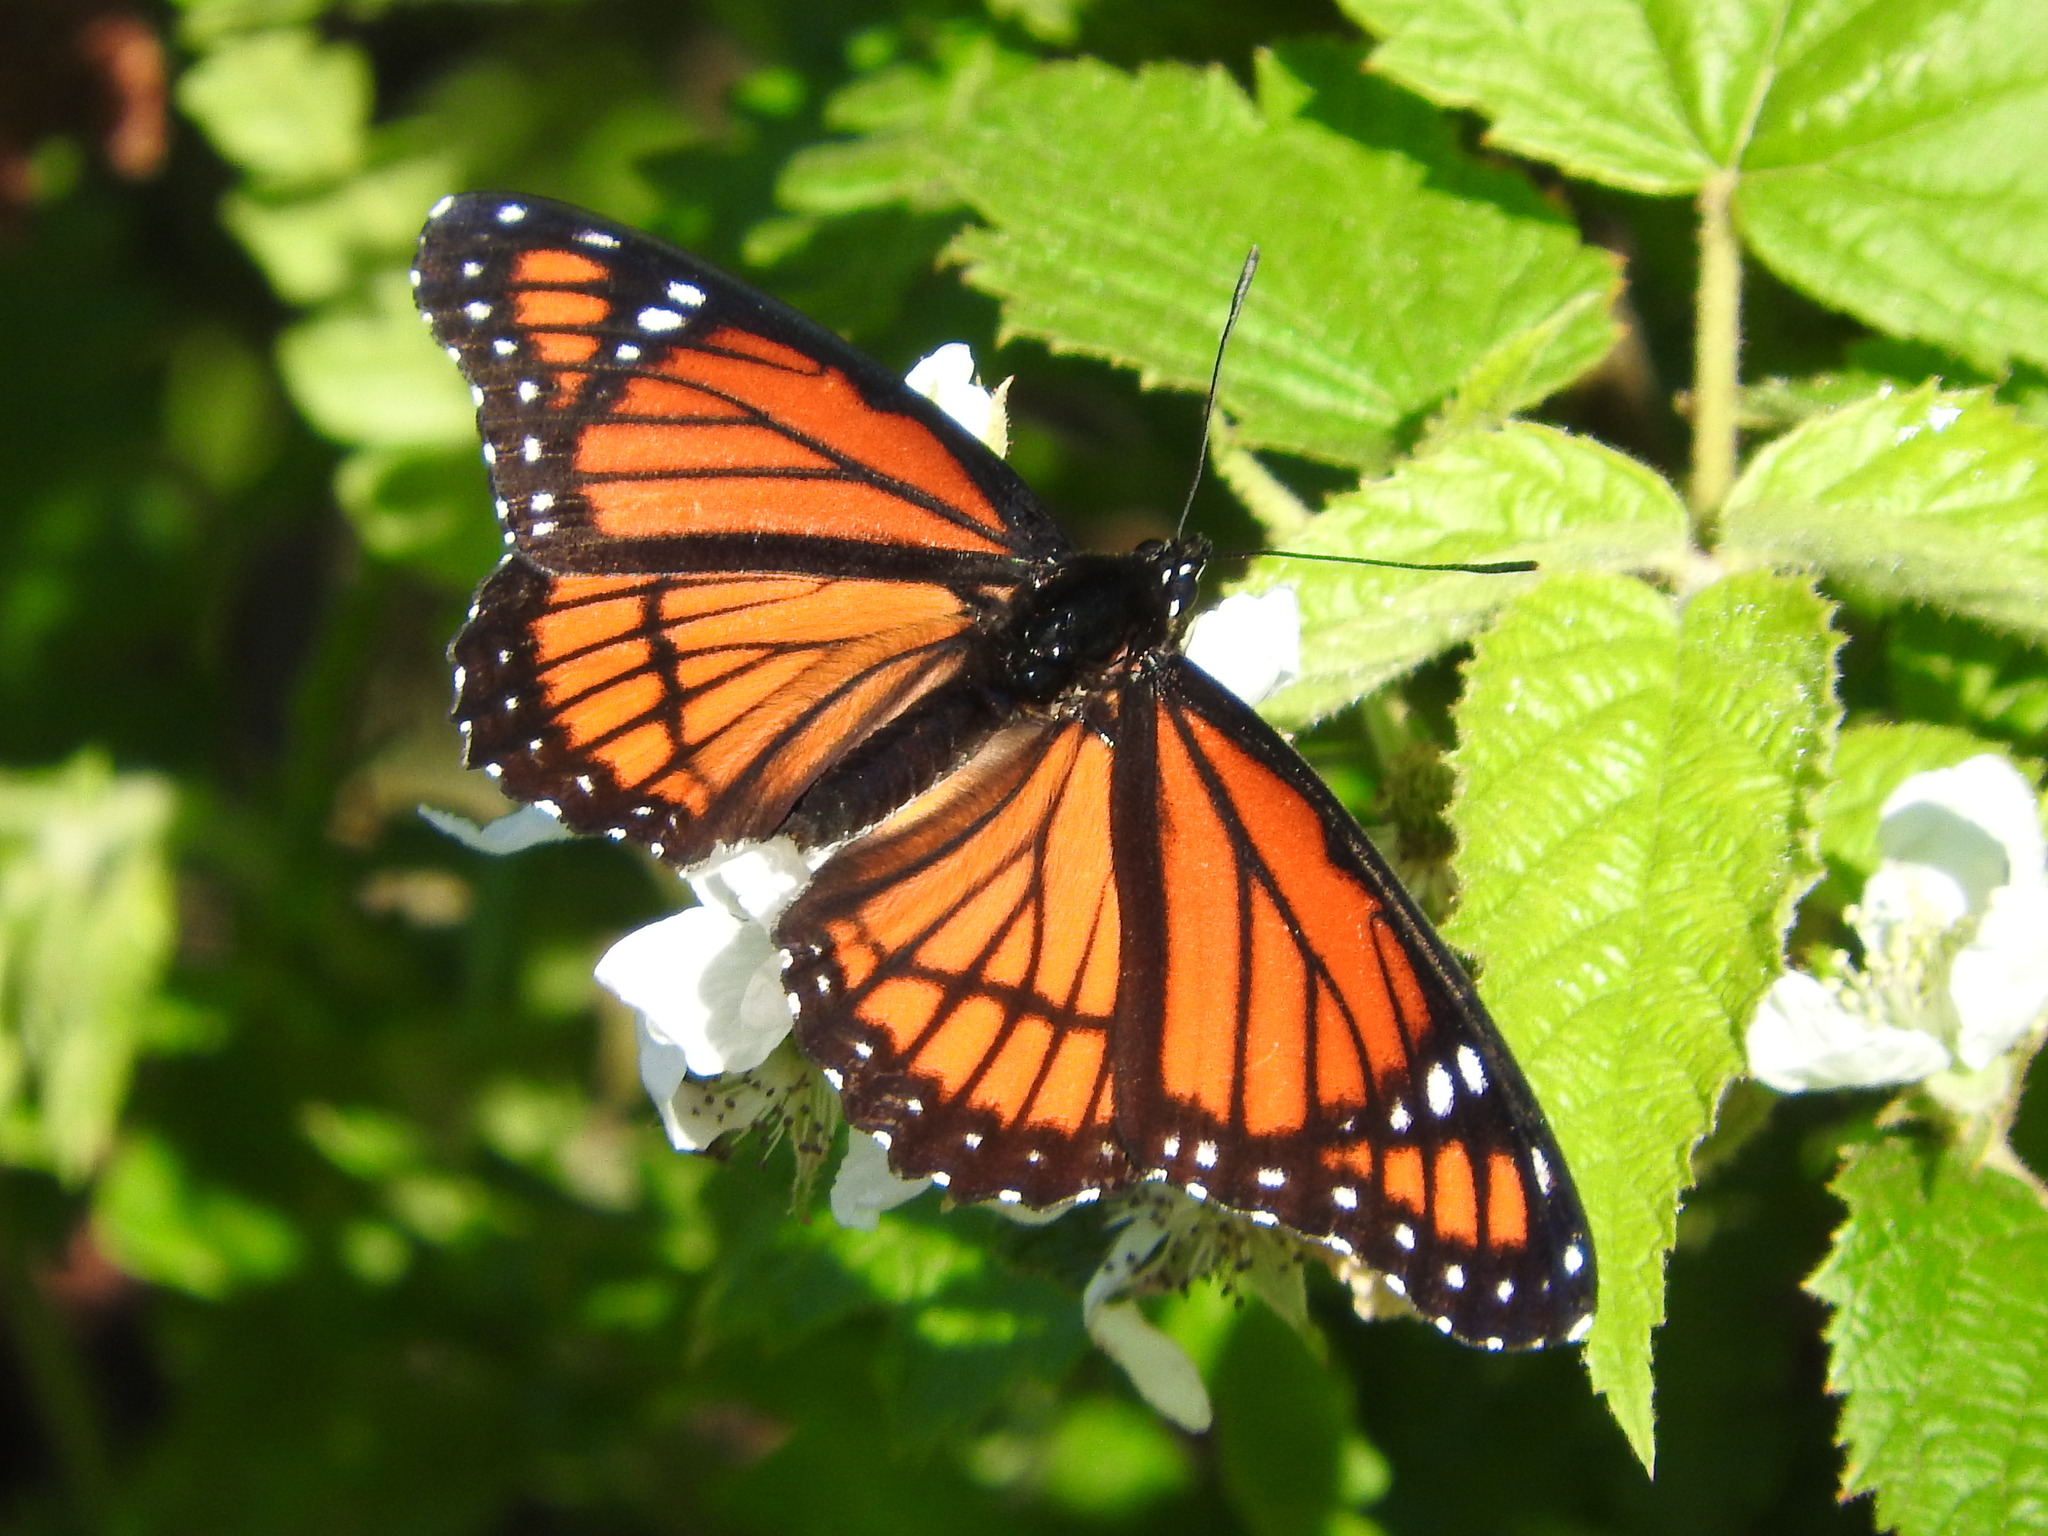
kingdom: Animalia
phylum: Arthropoda
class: Insecta
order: Lepidoptera
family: Nymphalidae
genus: Limenitis
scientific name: Limenitis archippus
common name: Viceroy
